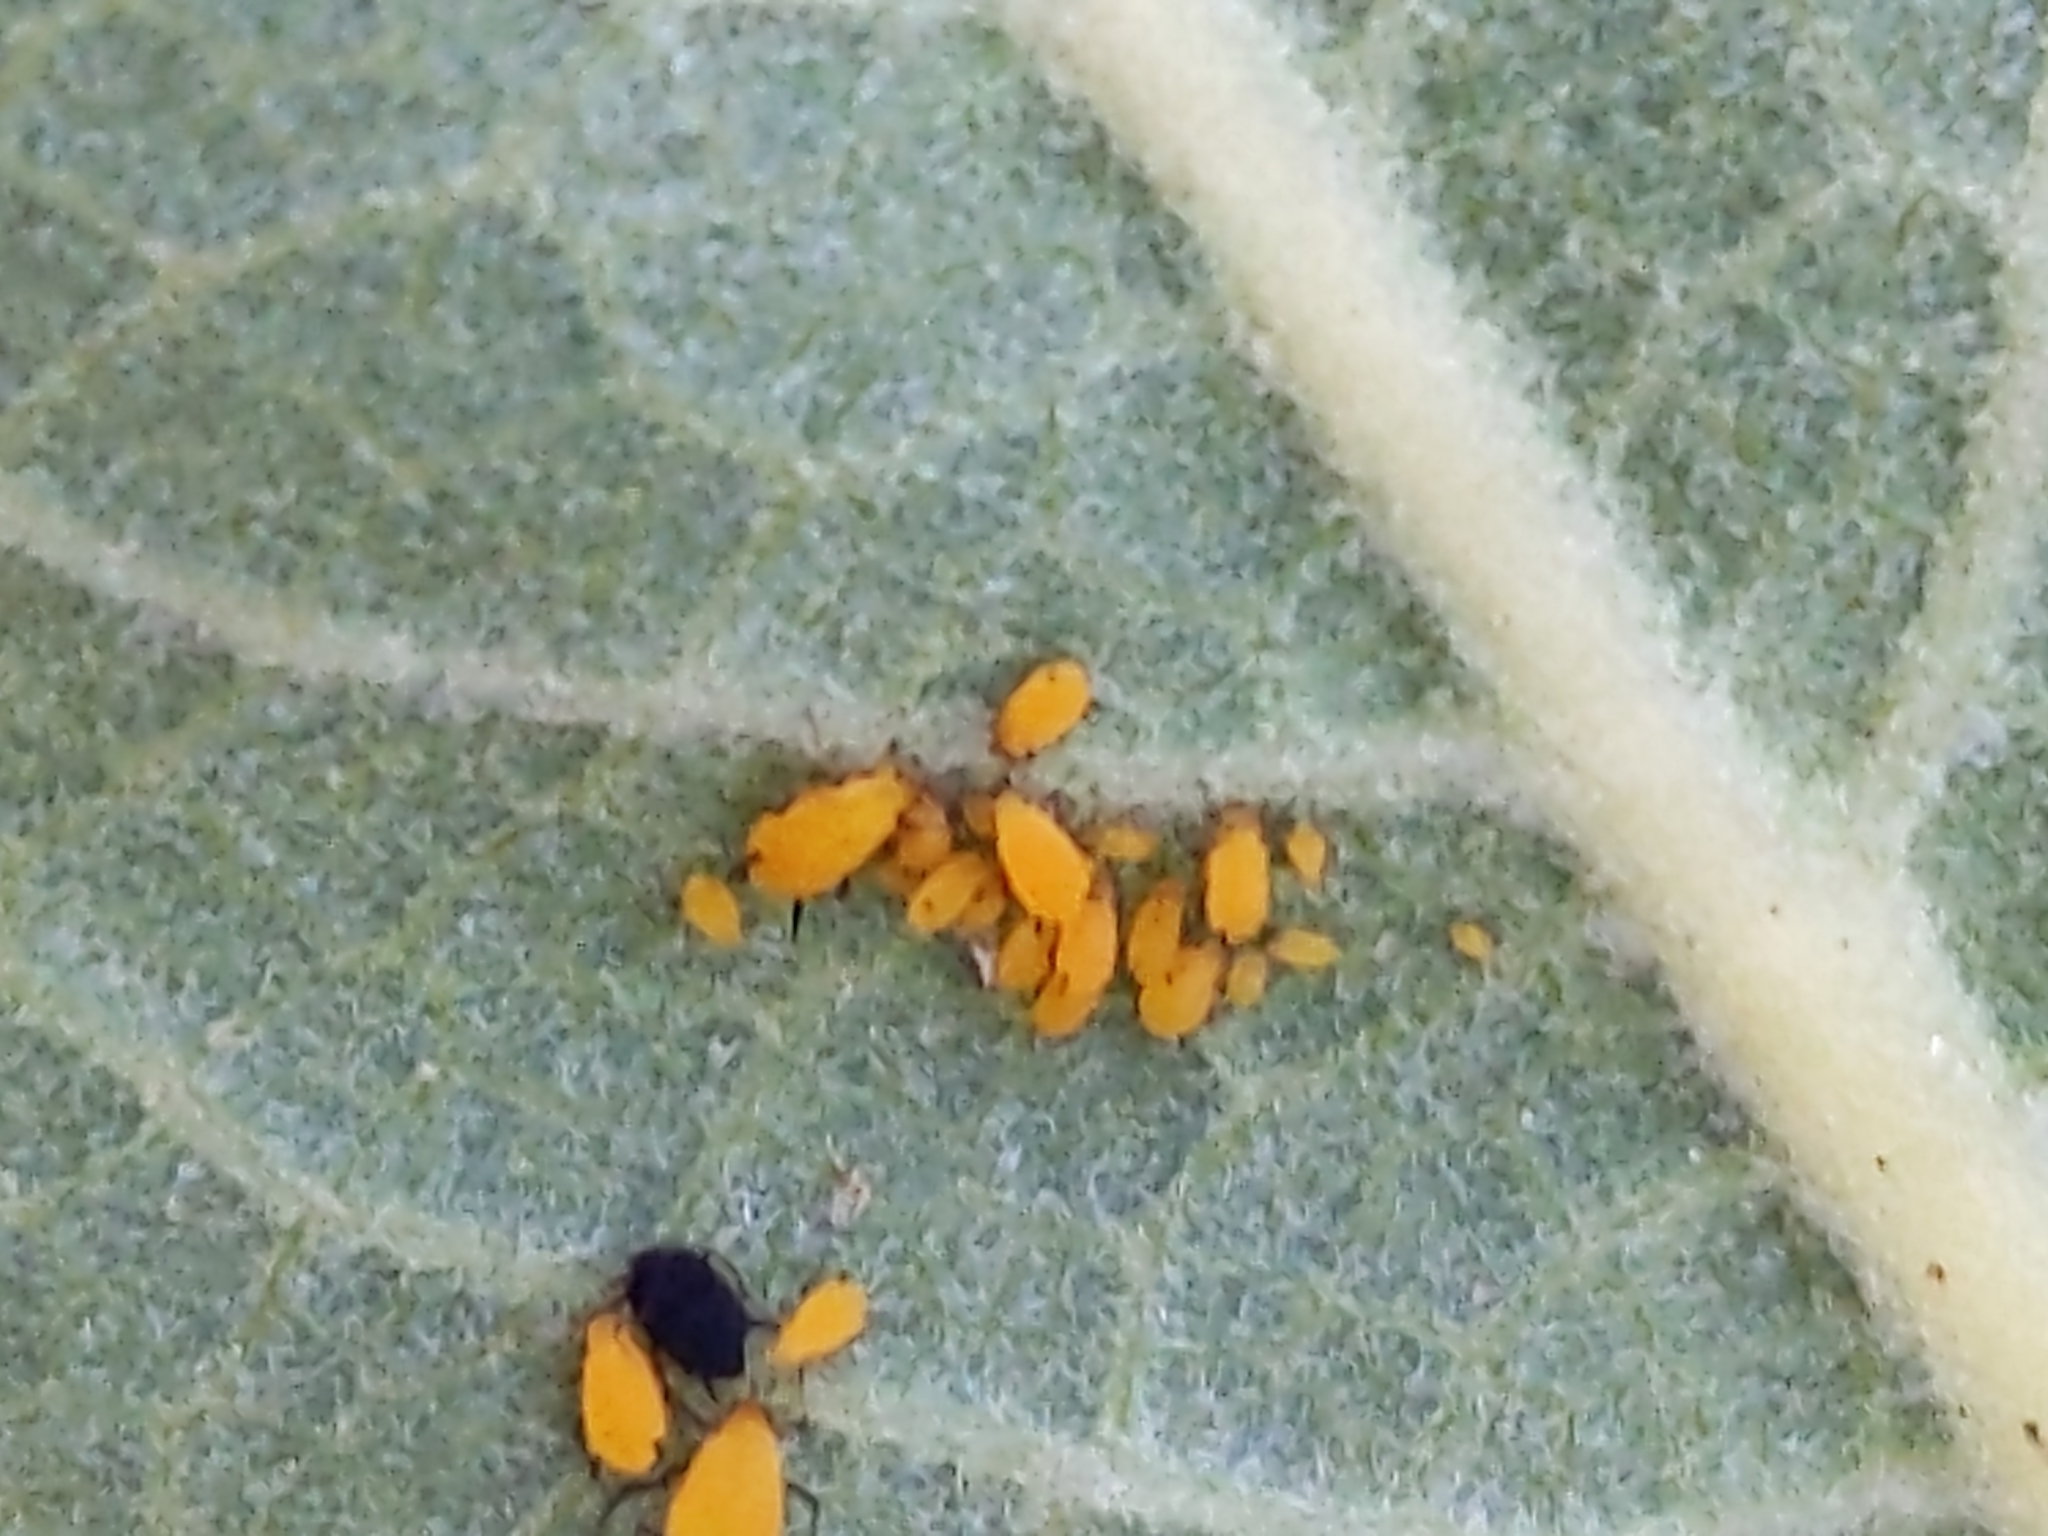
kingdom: Animalia
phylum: Arthropoda
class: Insecta
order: Hemiptera
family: Aphididae
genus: Aphis
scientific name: Aphis nerii
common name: Oleander aphid
